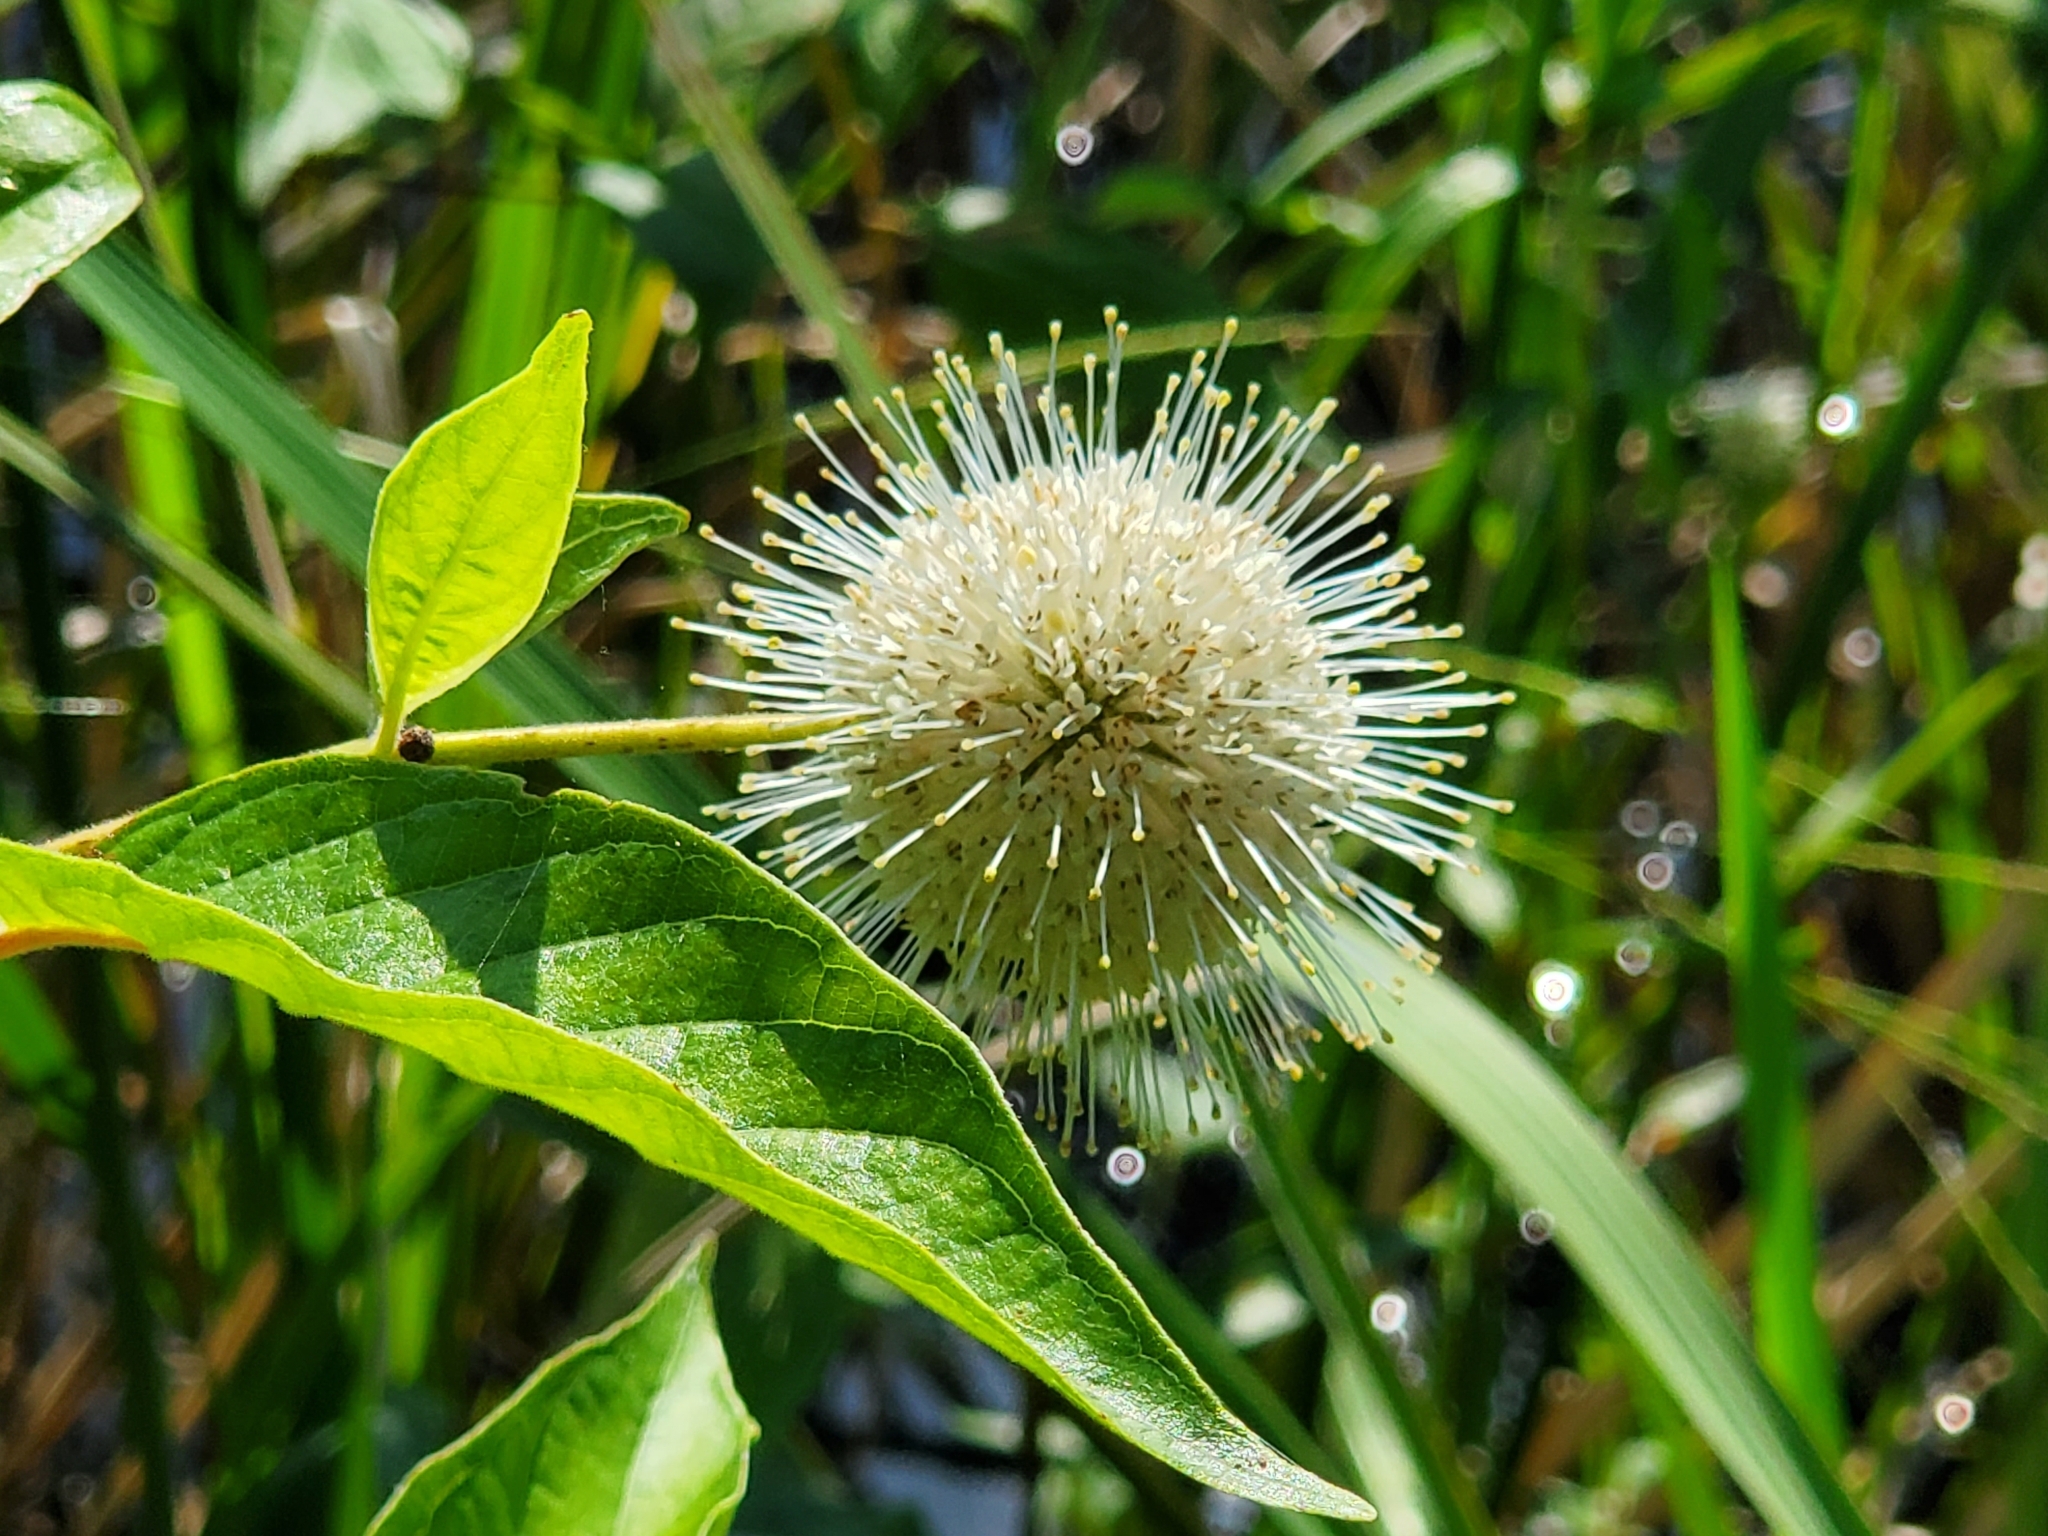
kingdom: Plantae
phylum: Tracheophyta
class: Magnoliopsida
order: Gentianales
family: Rubiaceae
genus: Cephalanthus
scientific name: Cephalanthus occidentalis
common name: Button-willow
